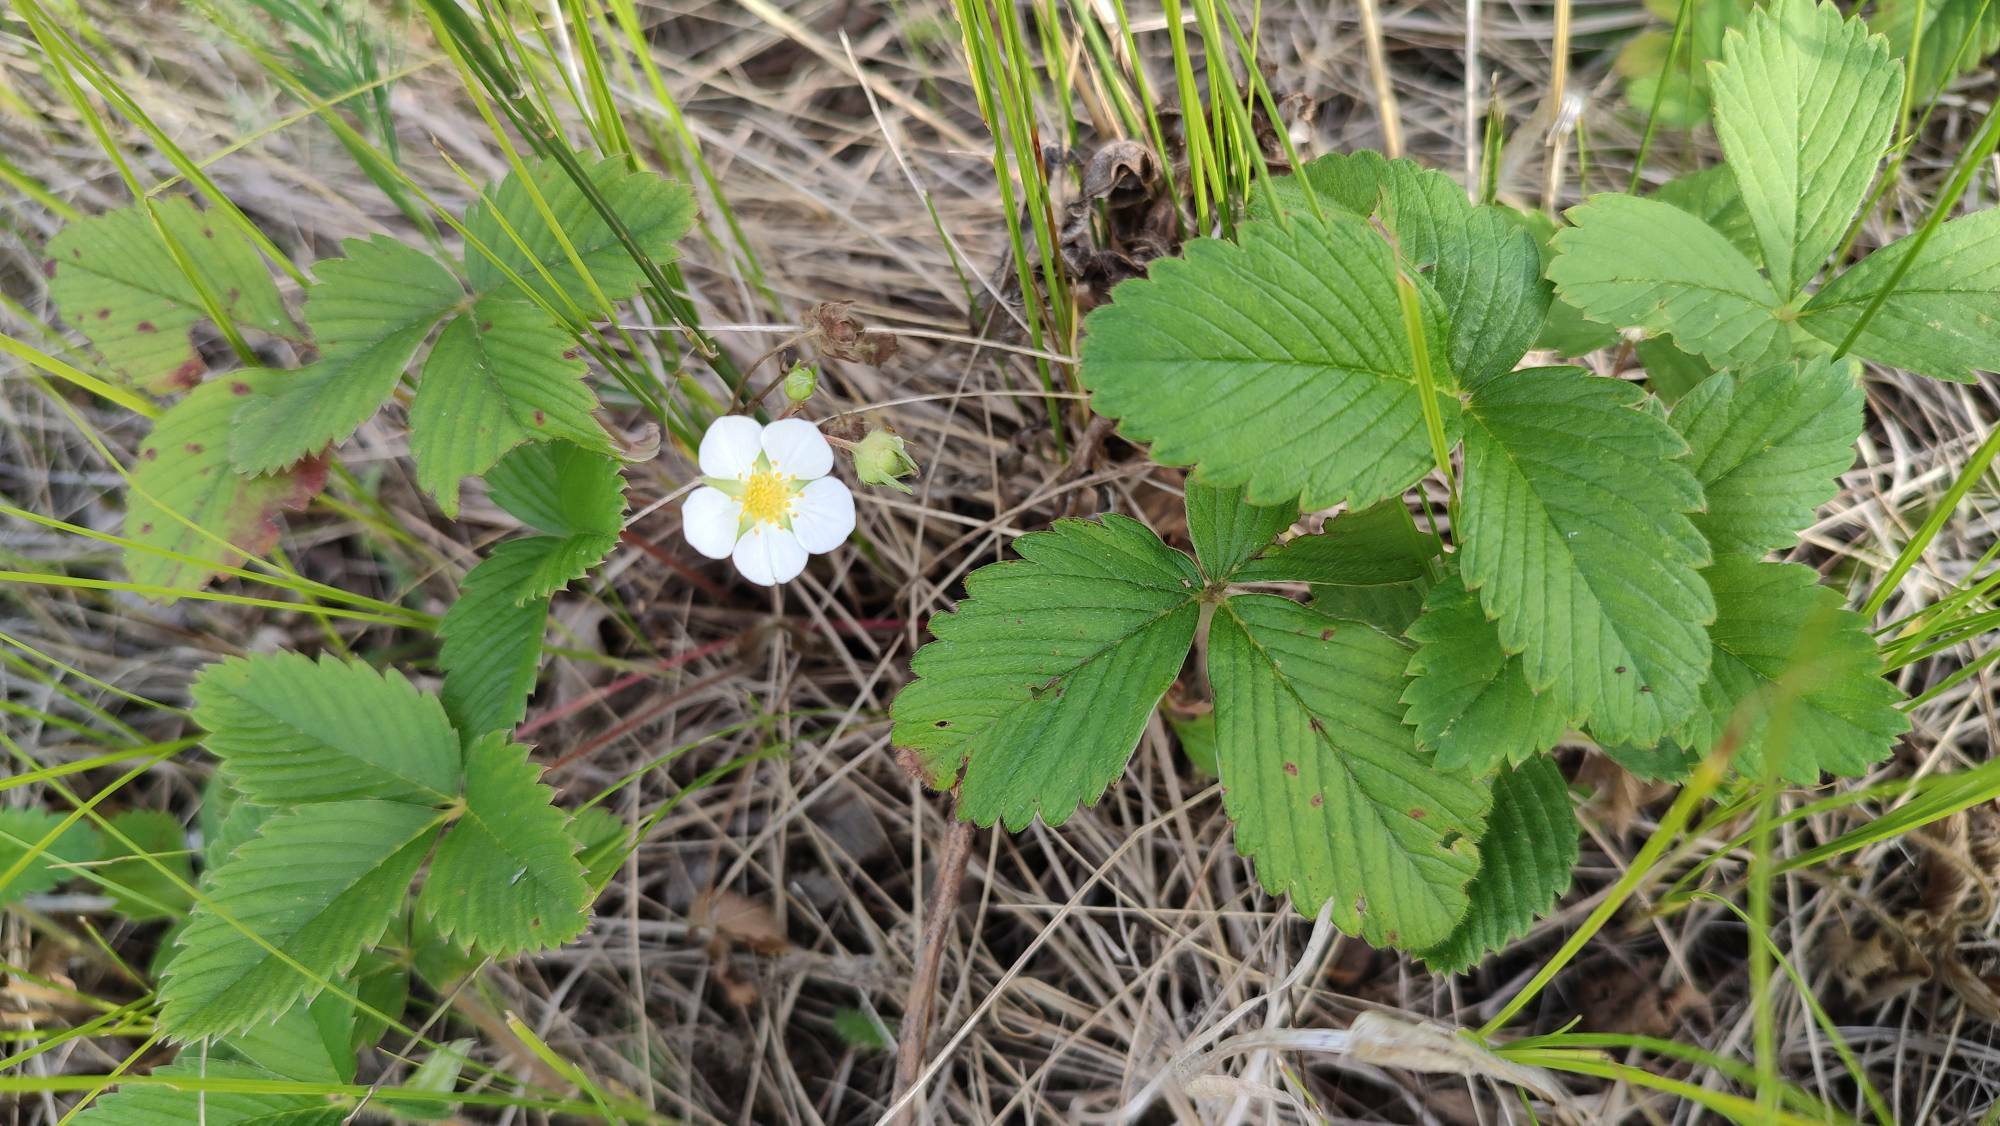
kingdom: Plantae
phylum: Tracheophyta
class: Magnoliopsida
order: Rosales
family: Rosaceae
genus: Fragaria
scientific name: Fragaria viridis
